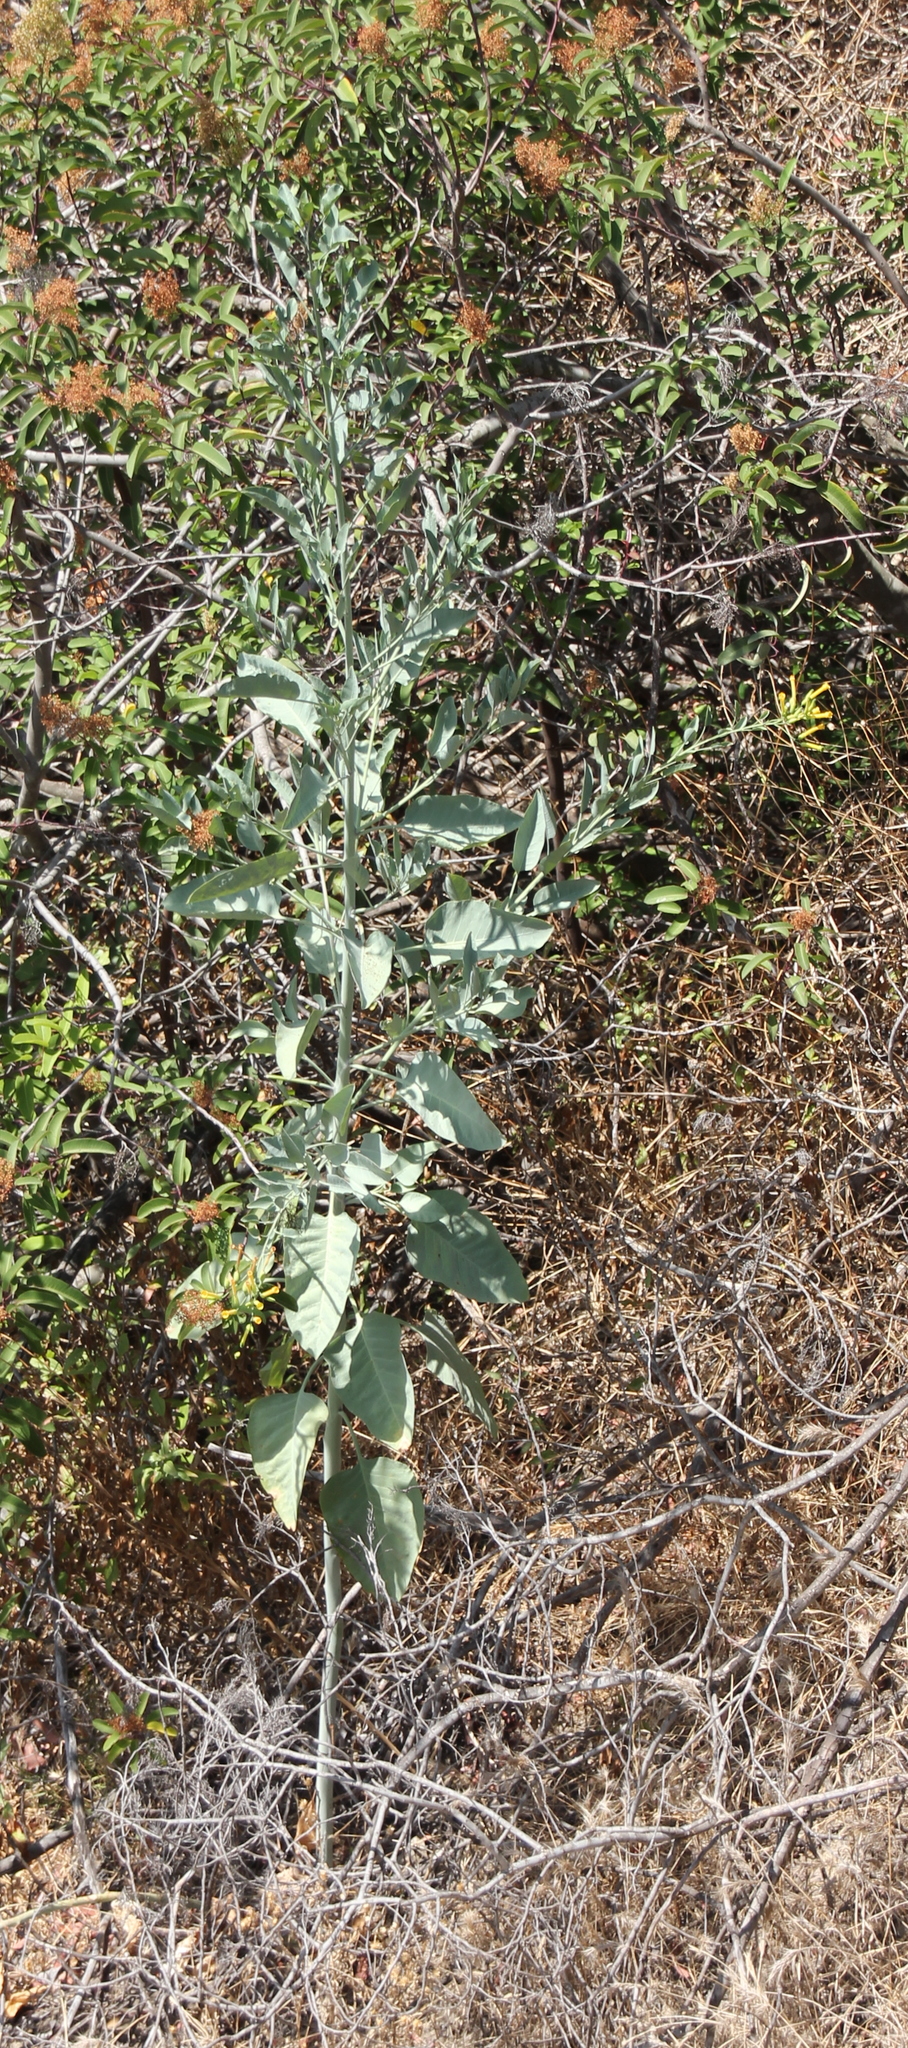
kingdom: Plantae
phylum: Tracheophyta
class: Magnoliopsida
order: Solanales
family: Solanaceae
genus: Nicotiana
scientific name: Nicotiana glauca
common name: Tree tobacco
